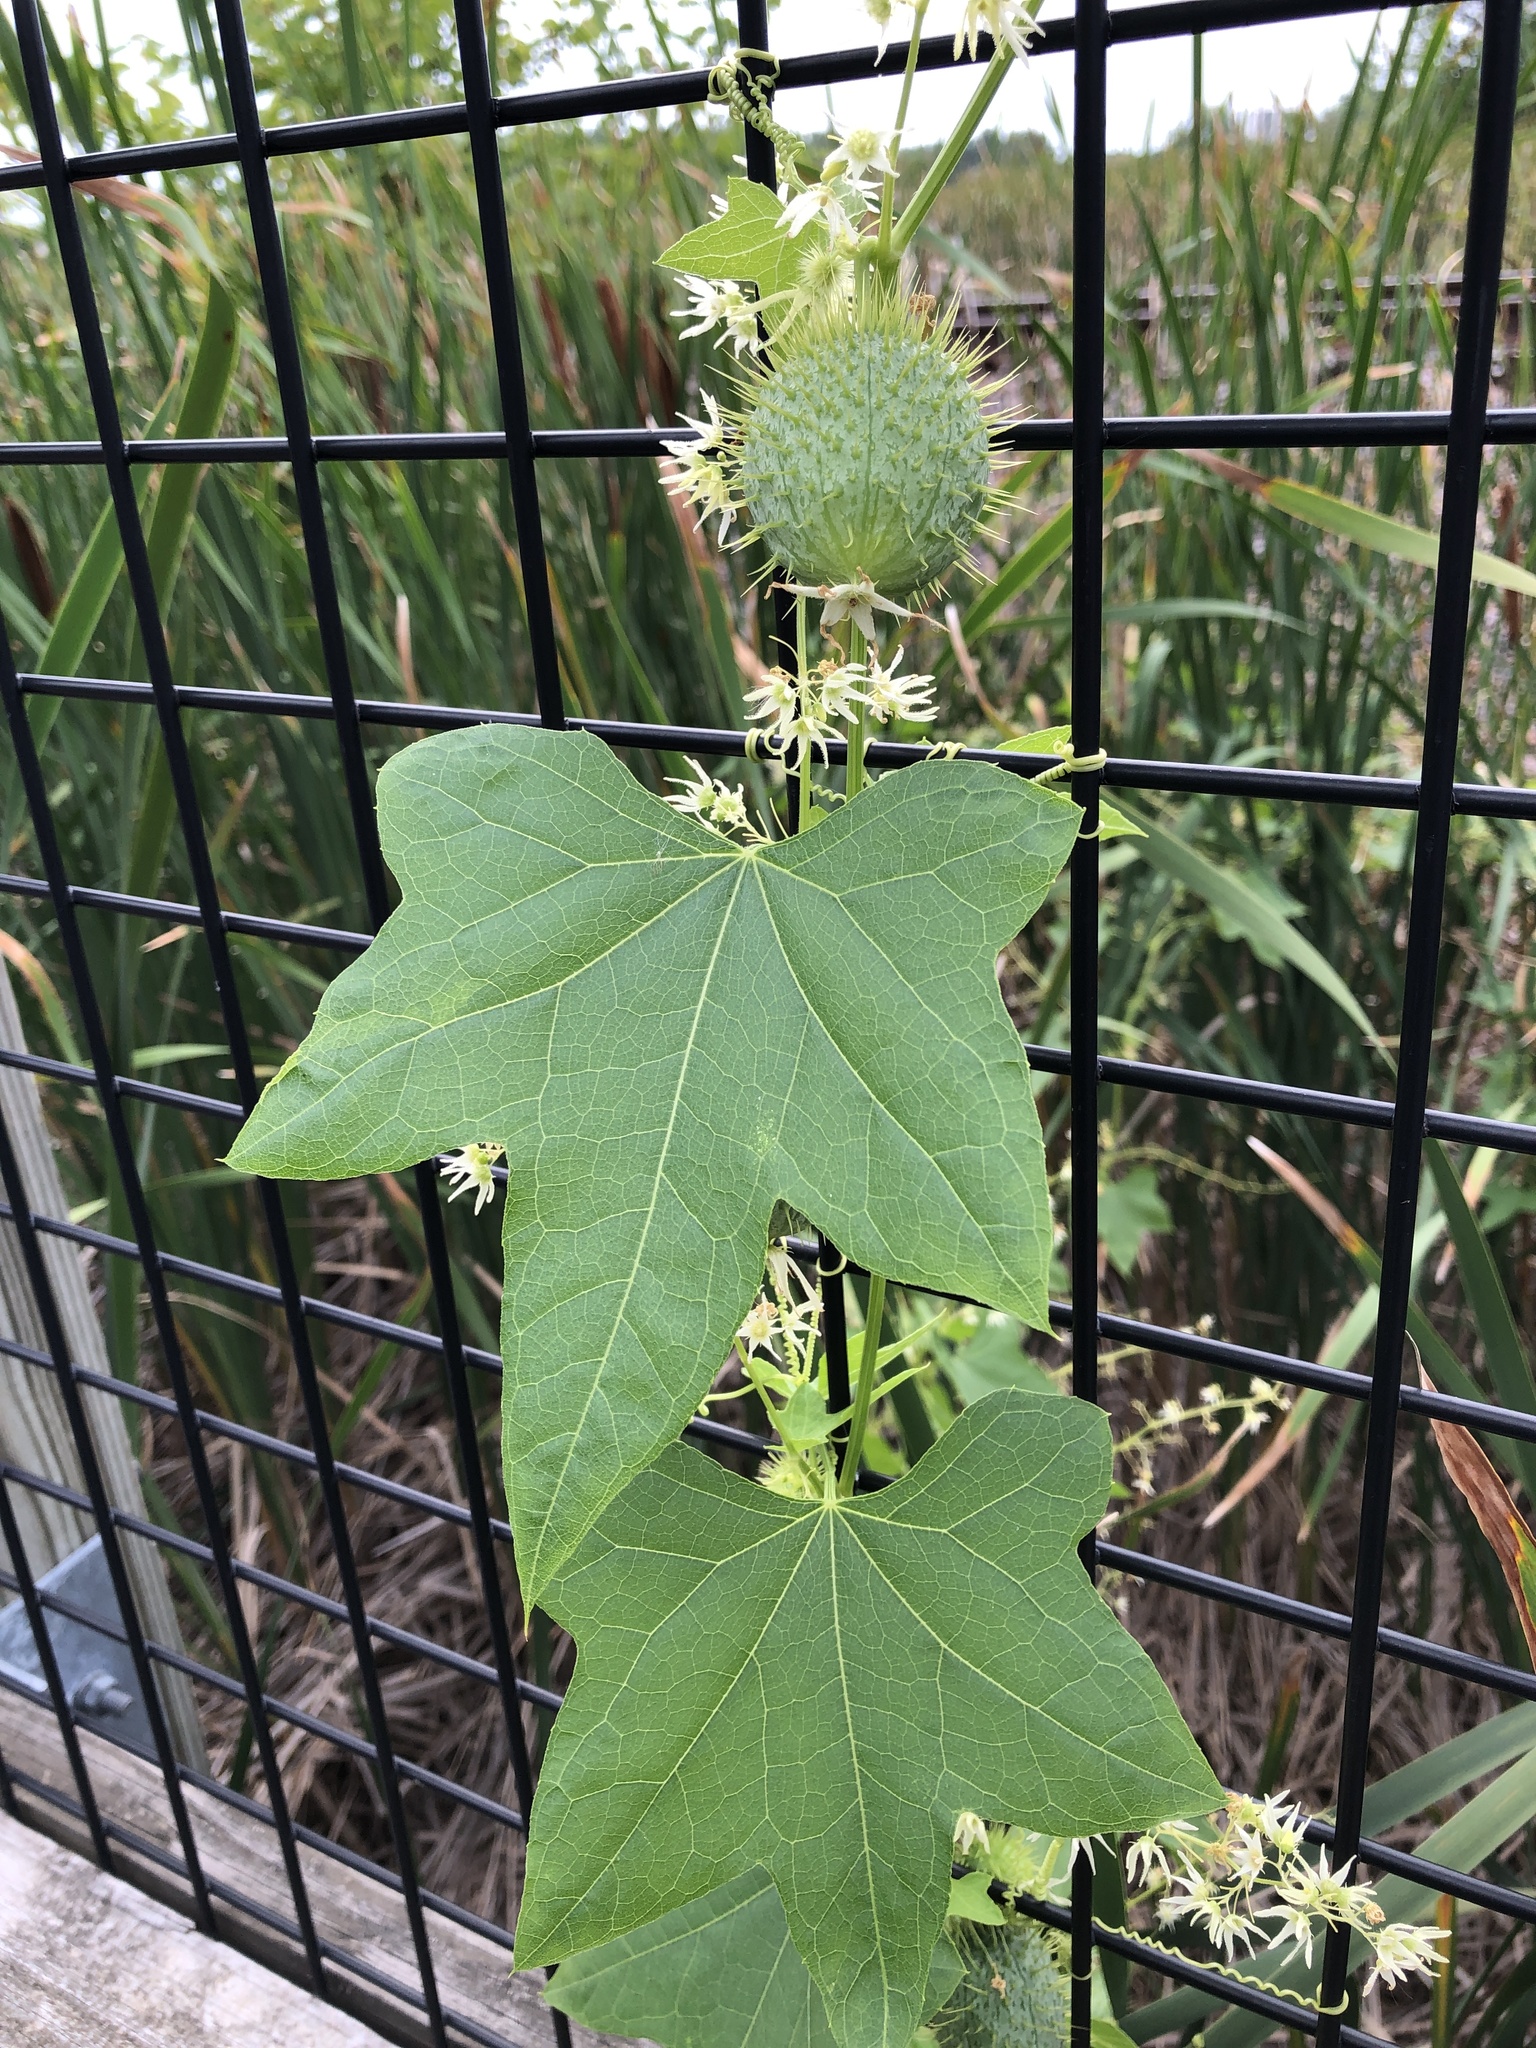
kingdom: Plantae
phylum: Tracheophyta
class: Magnoliopsida
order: Cucurbitales
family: Cucurbitaceae
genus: Echinocystis
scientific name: Echinocystis lobata
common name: Wild cucumber
